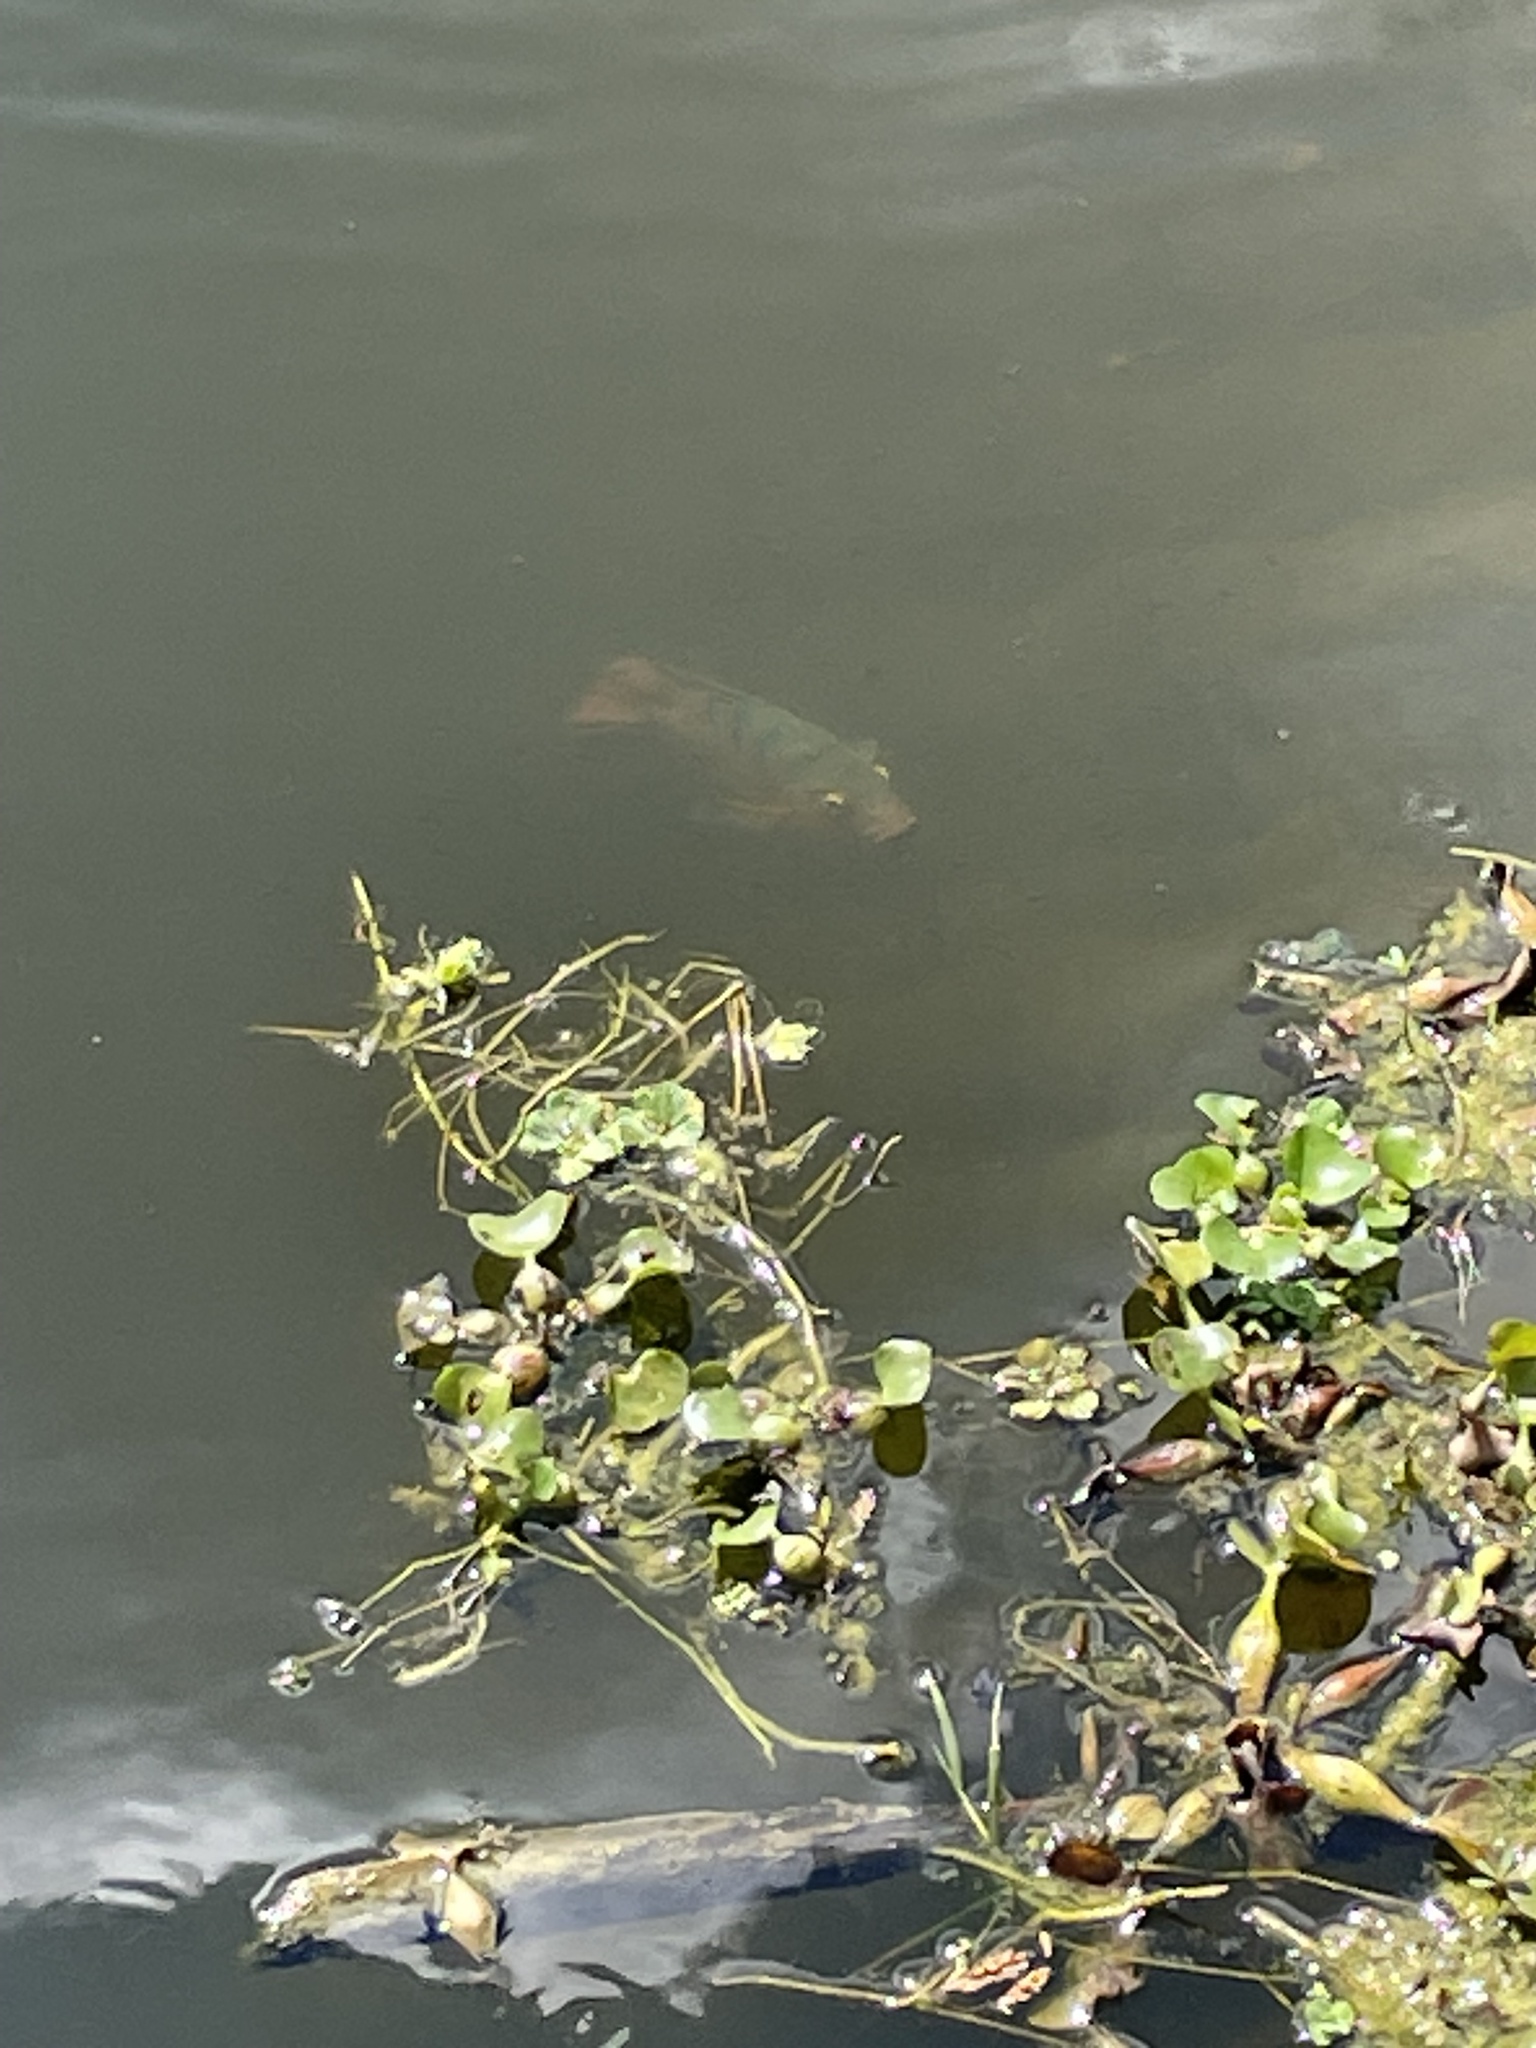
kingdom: Animalia
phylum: Chordata
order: Perciformes
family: Cichlidae
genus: Mayaheros
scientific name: Mayaheros urophthalmus
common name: Mayan cichlid
